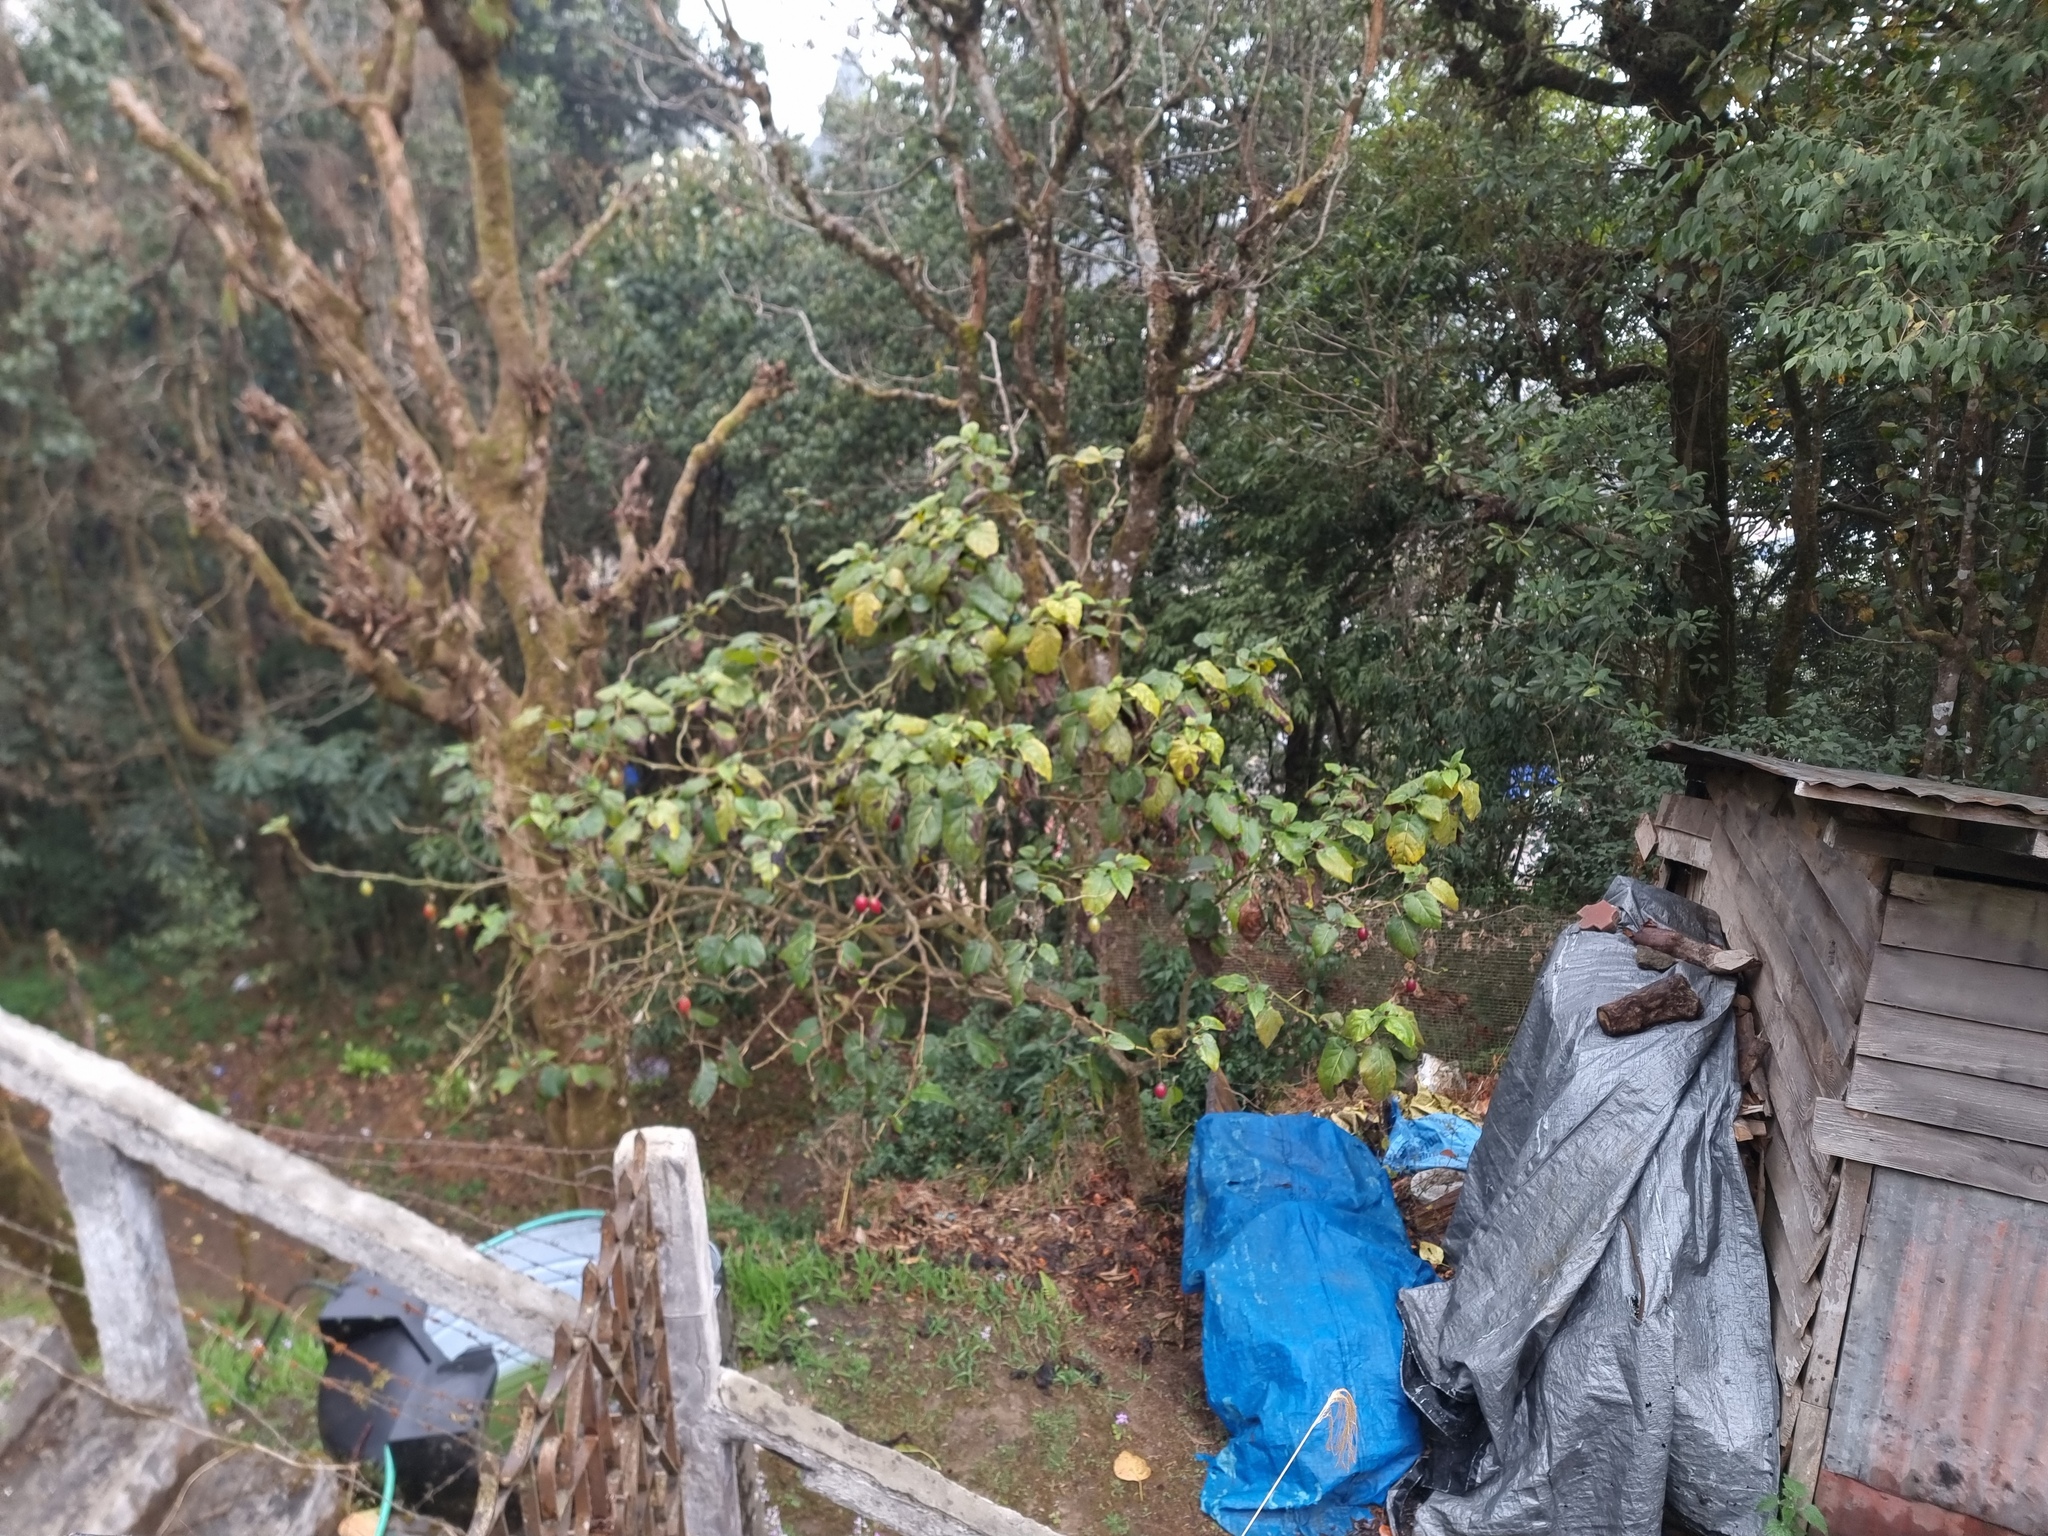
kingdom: Plantae
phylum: Tracheophyta
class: Magnoliopsida
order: Solanales
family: Solanaceae
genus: Solanum
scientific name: Solanum betaceum
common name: Tamarillo
